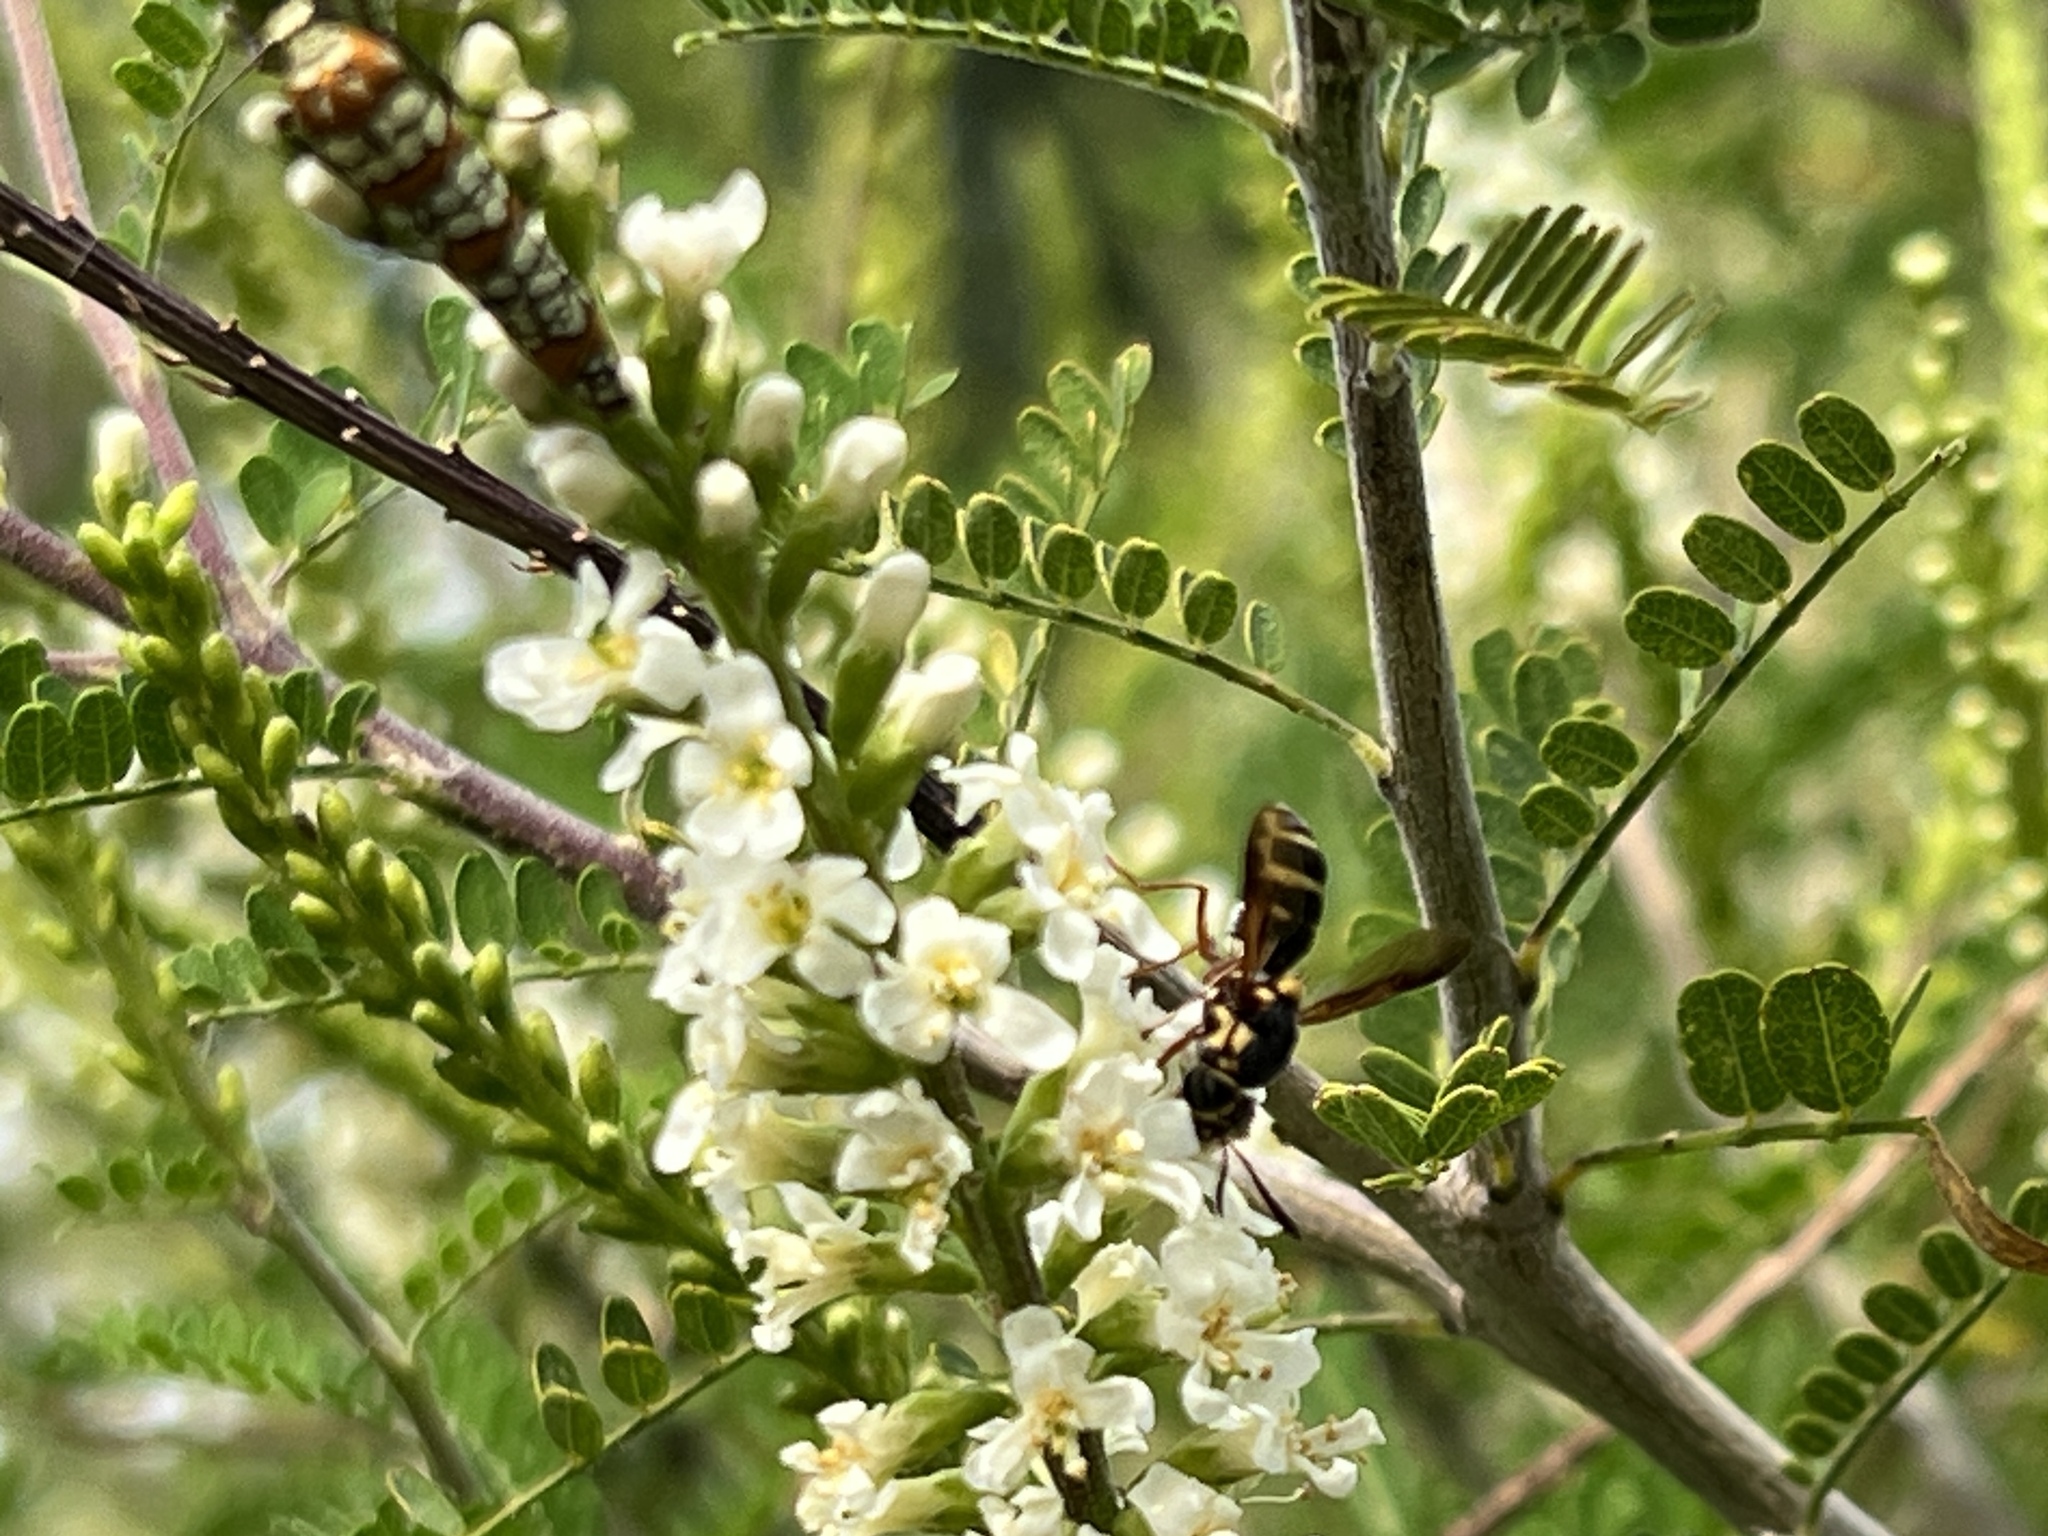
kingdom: Animalia
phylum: Arthropoda
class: Insecta
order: Diptera
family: Stratiomyidae
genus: Hoplitimyia
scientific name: Hoplitimyia constans
